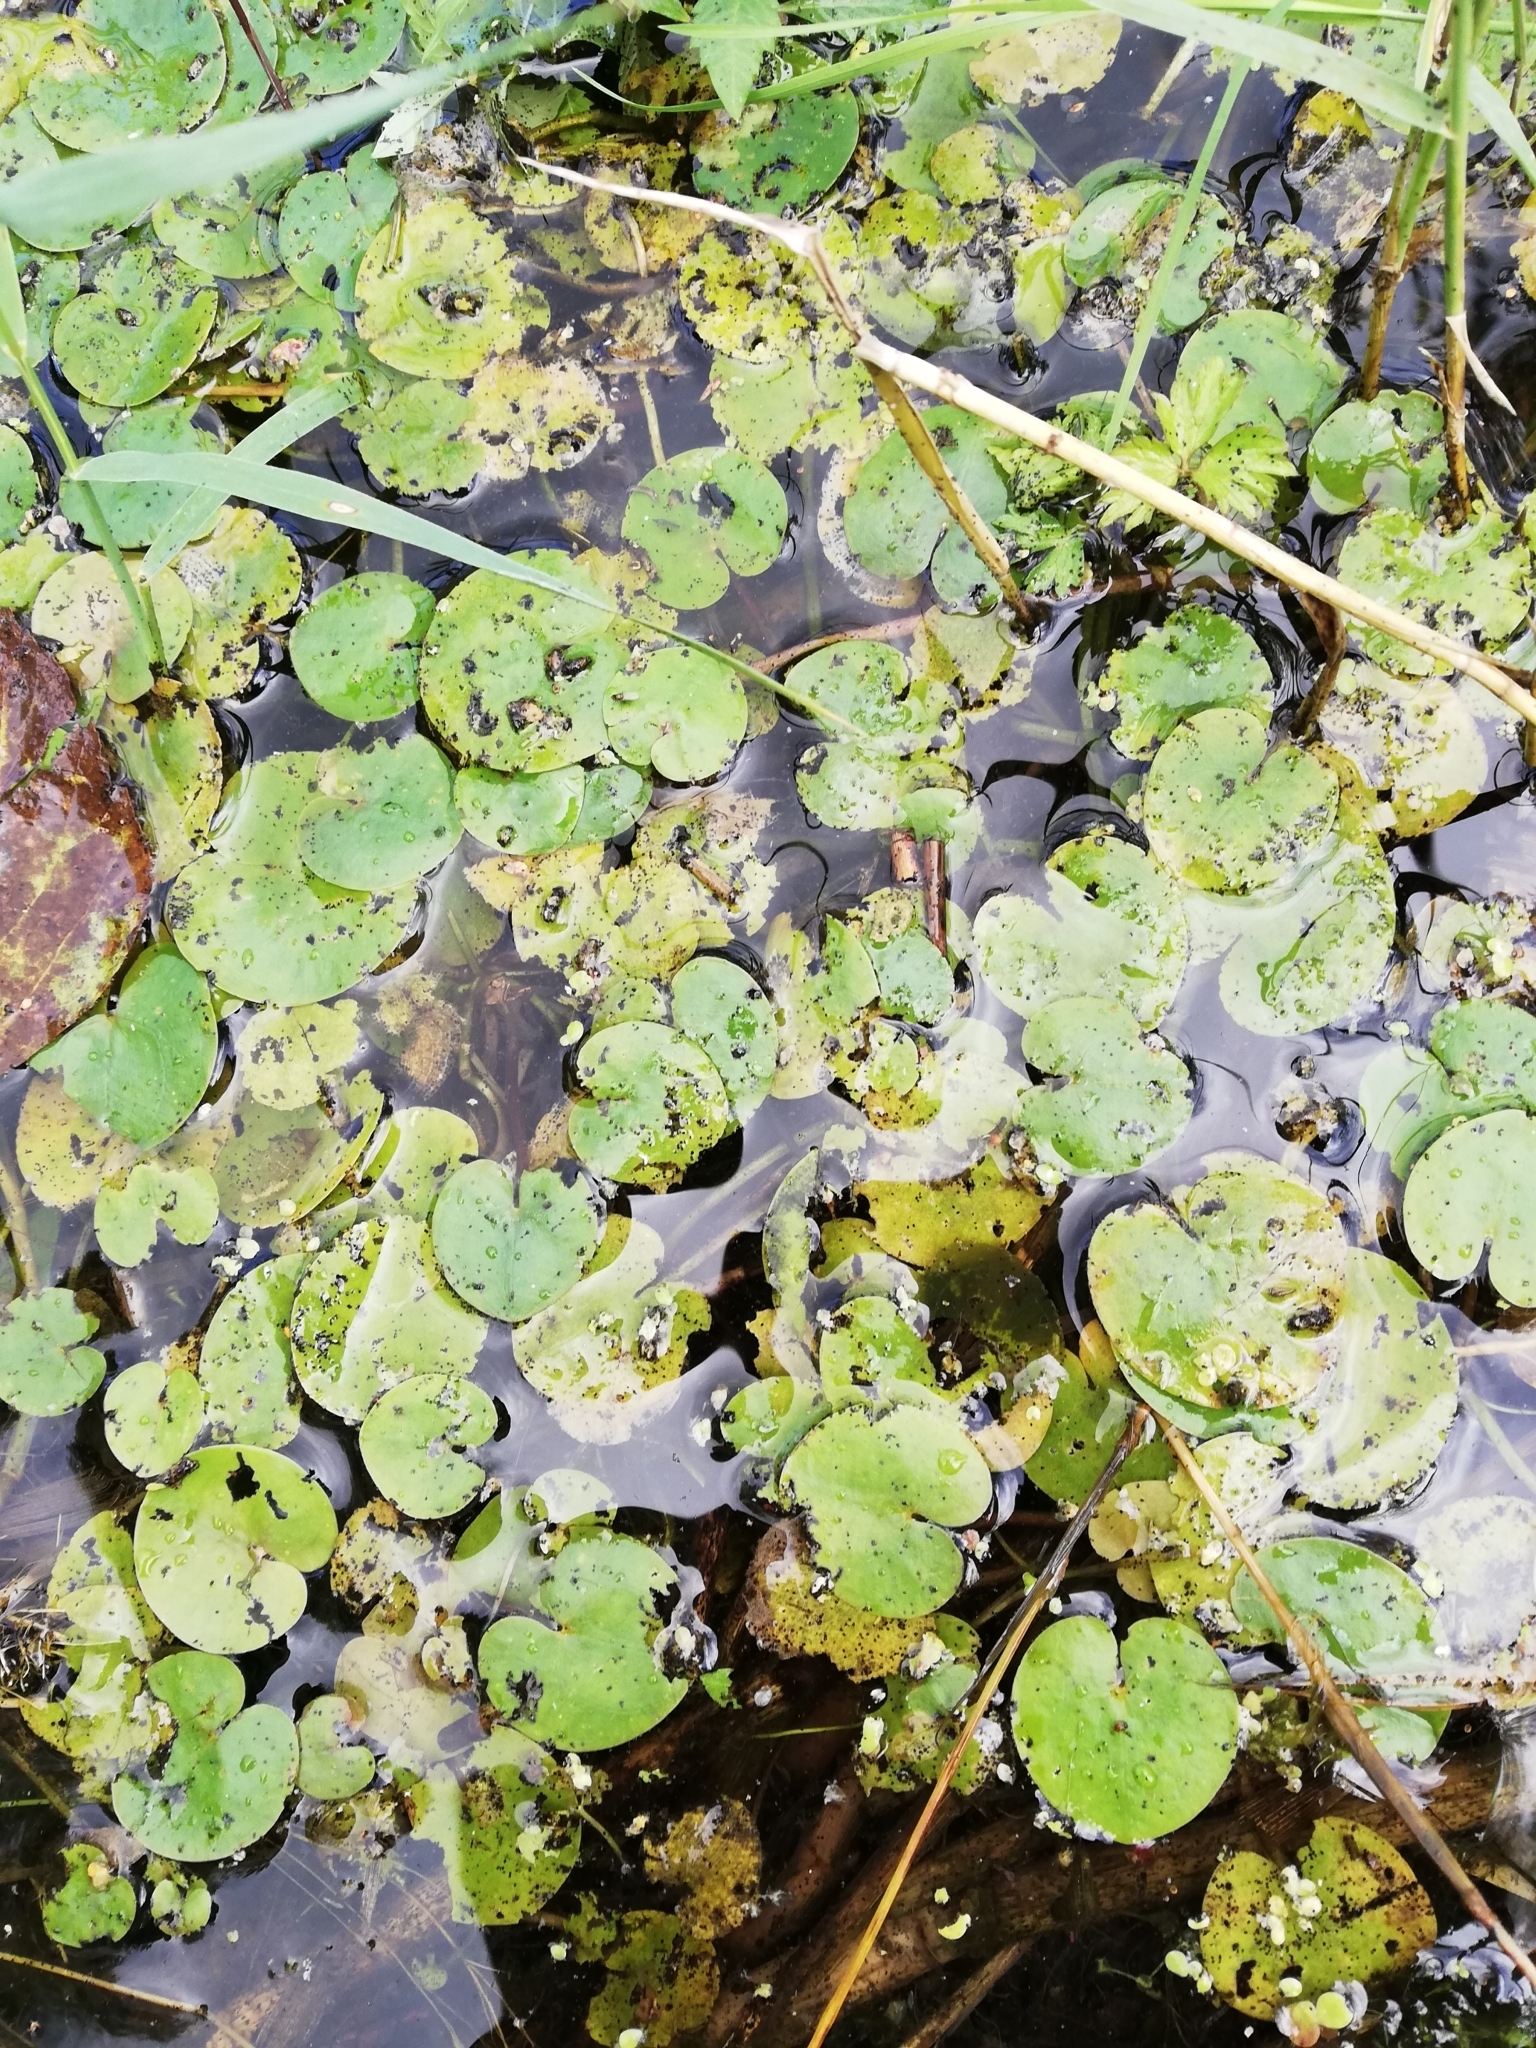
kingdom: Plantae
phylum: Tracheophyta
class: Liliopsida
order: Alismatales
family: Hydrocharitaceae
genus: Hydrocharis
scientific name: Hydrocharis morsus-ranae
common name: Frogbit
